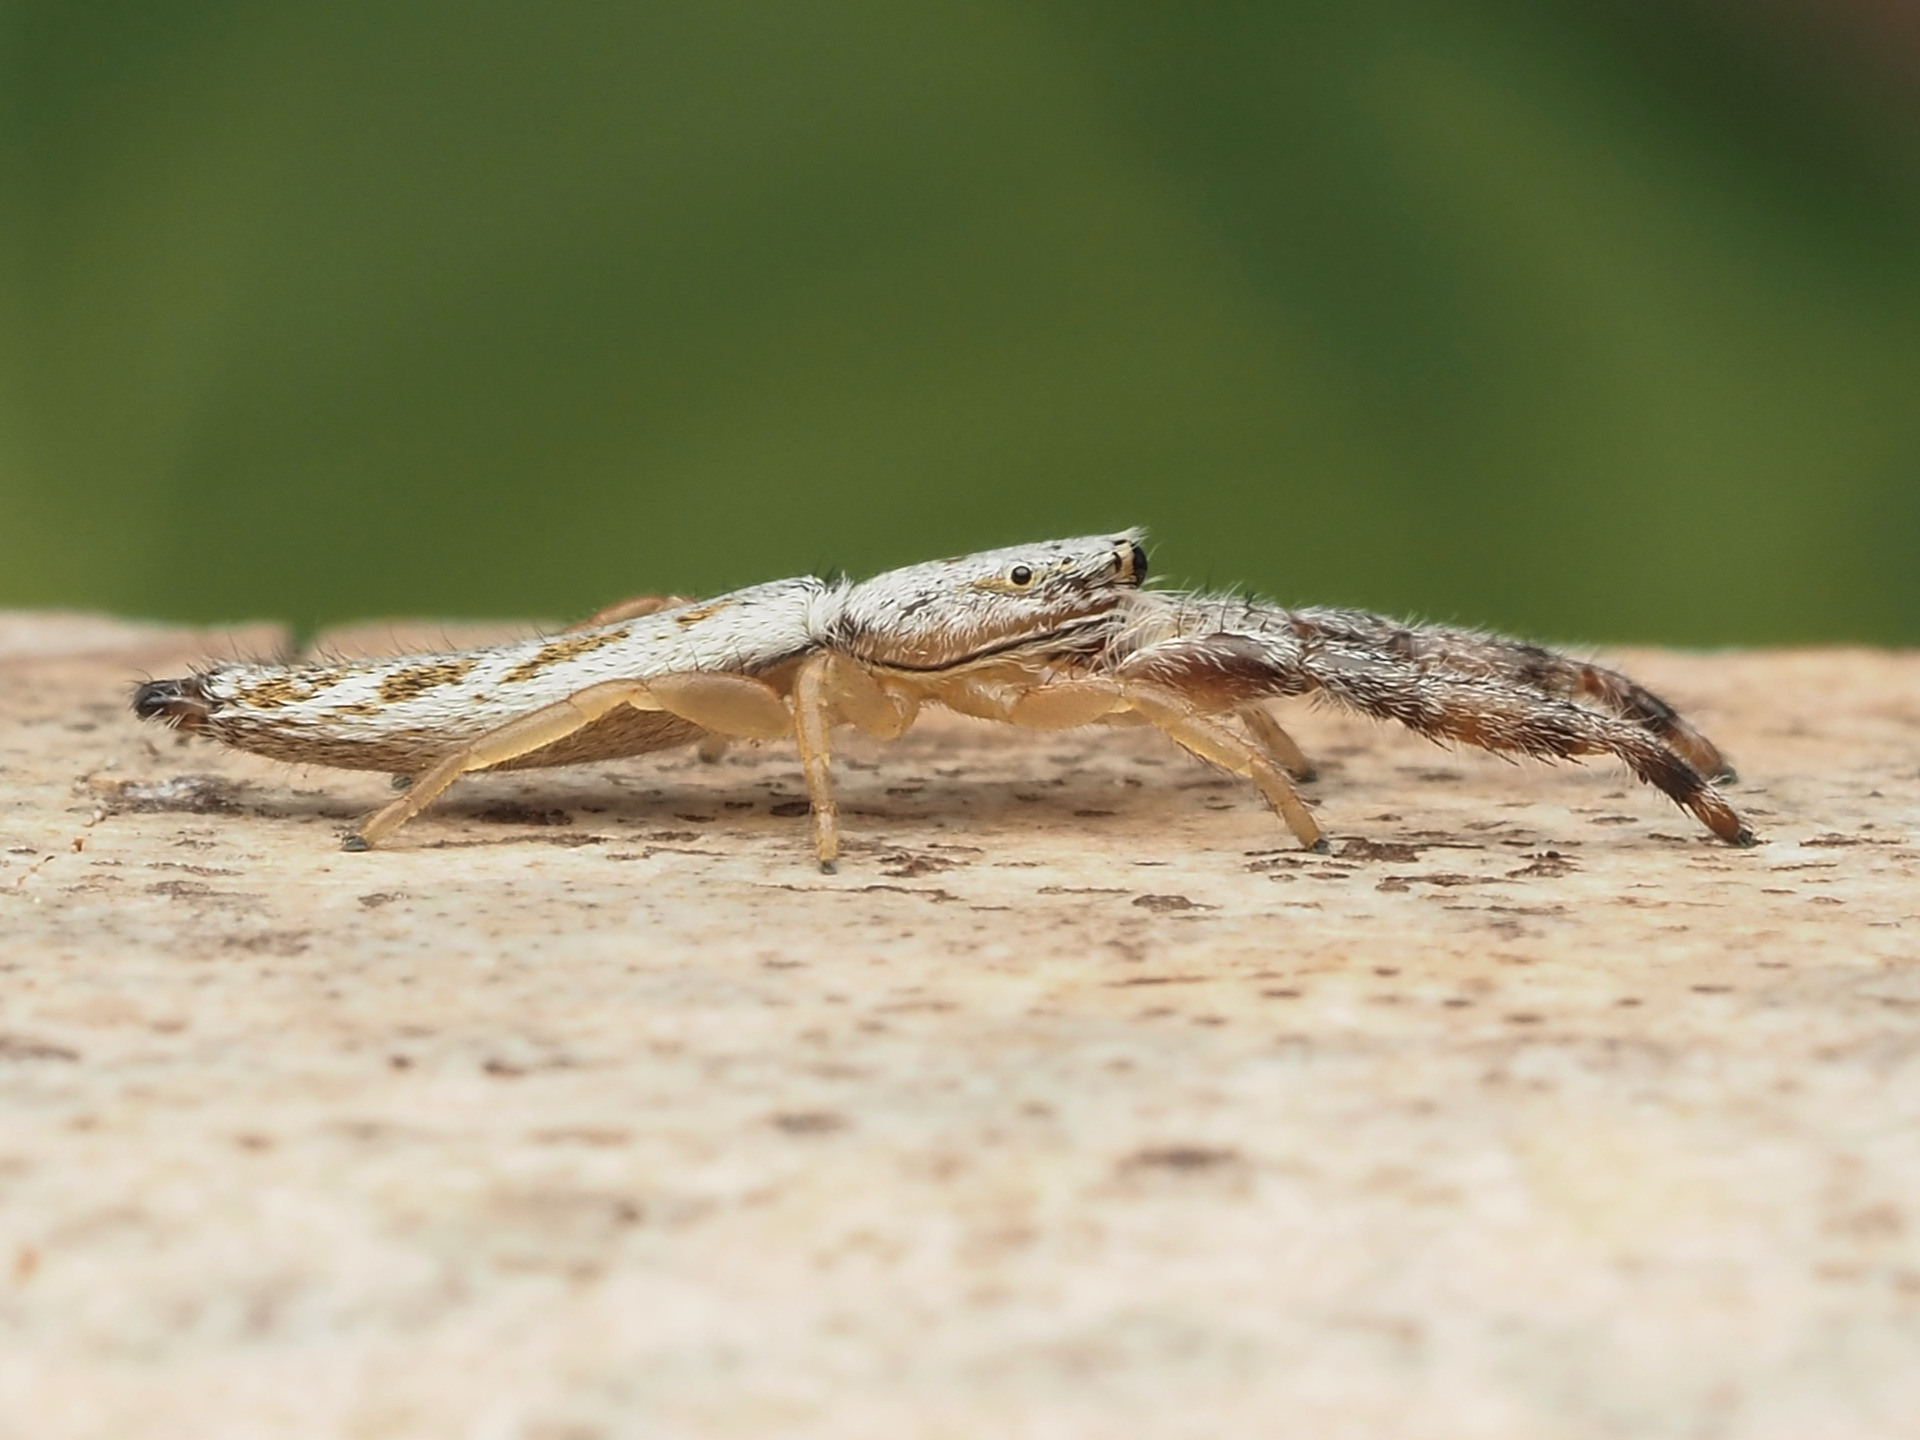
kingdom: Animalia
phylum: Arthropoda
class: Arachnida
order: Araneae
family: Salticidae
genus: Marpissa
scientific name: Marpissa pikei
